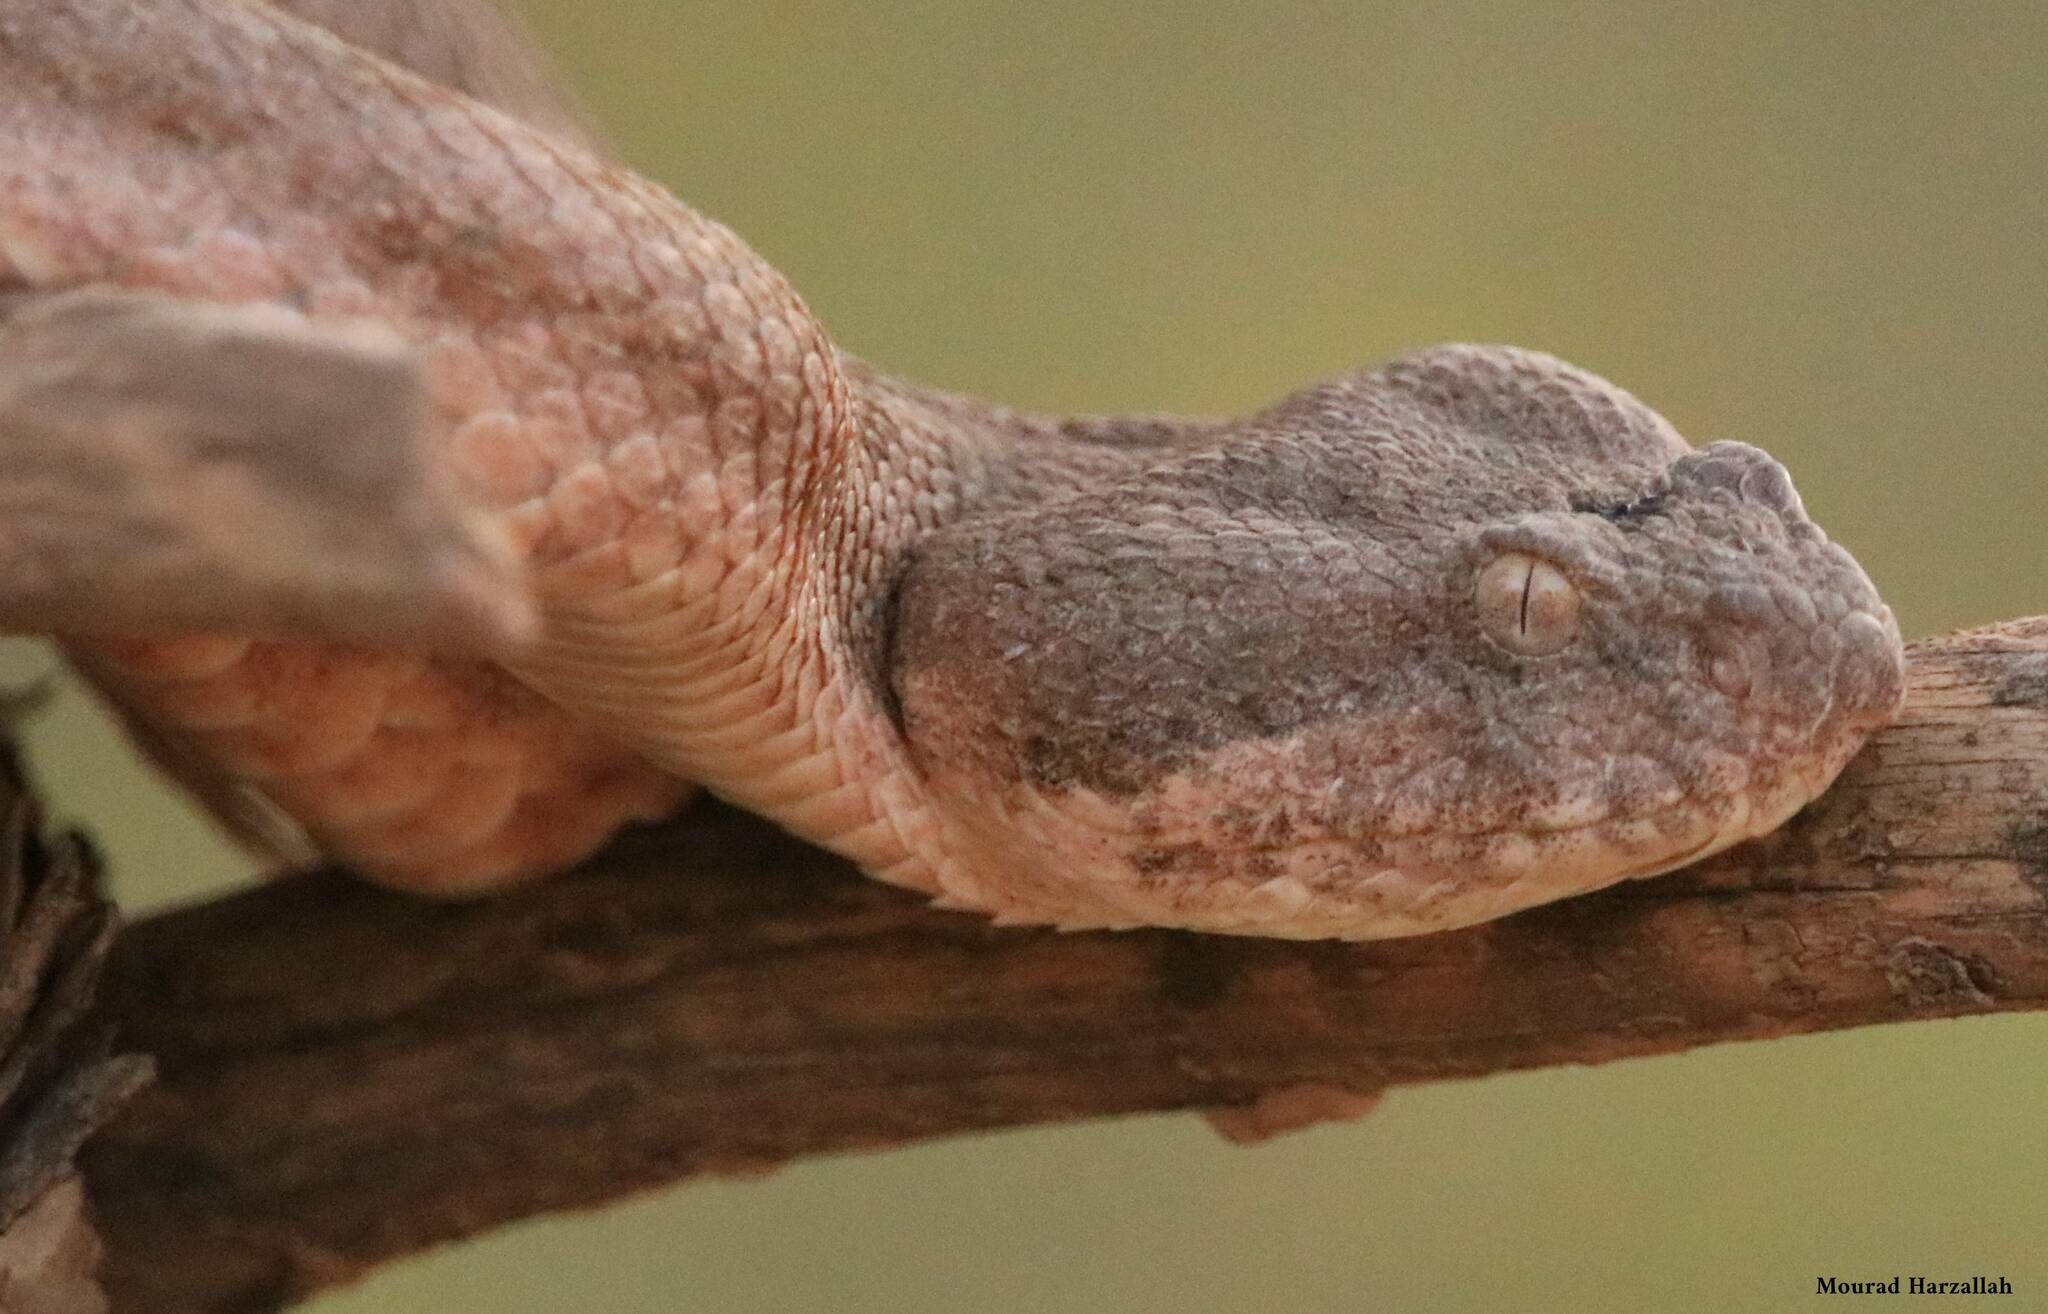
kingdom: Animalia
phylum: Chordata
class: Squamata
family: Viperidae
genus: Daboia
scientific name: Daboia mauritanica
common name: Moorish viper
